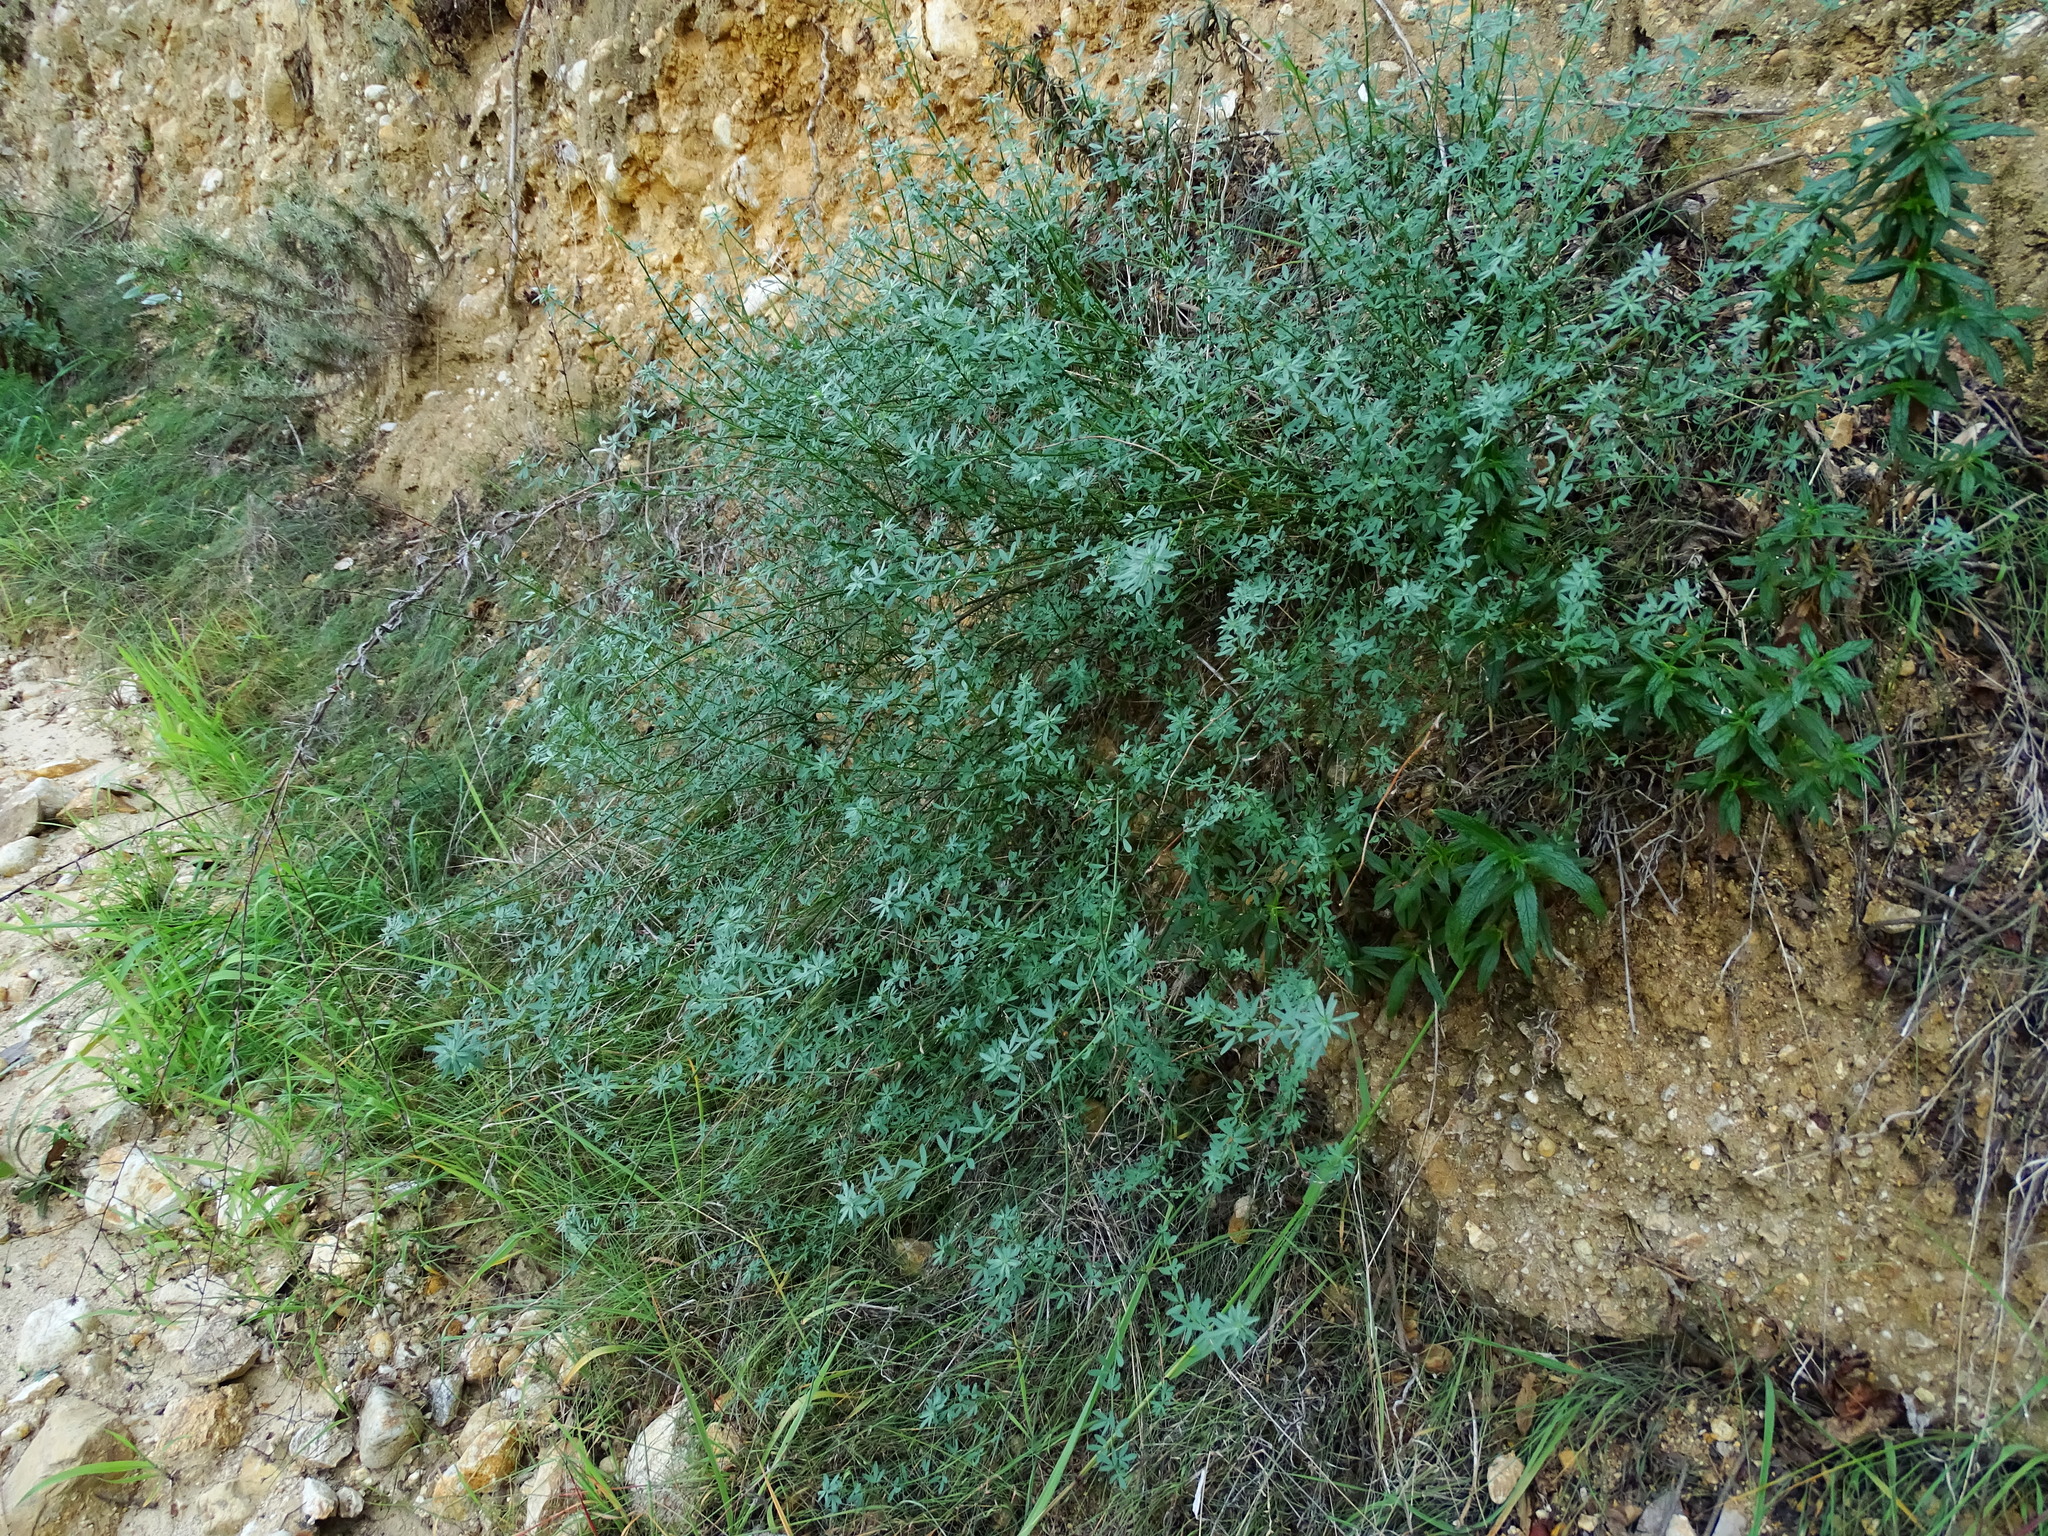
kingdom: Plantae
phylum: Tracheophyta
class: Magnoliopsida
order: Fabales
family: Fabaceae
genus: Acmispon
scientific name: Acmispon glaber
